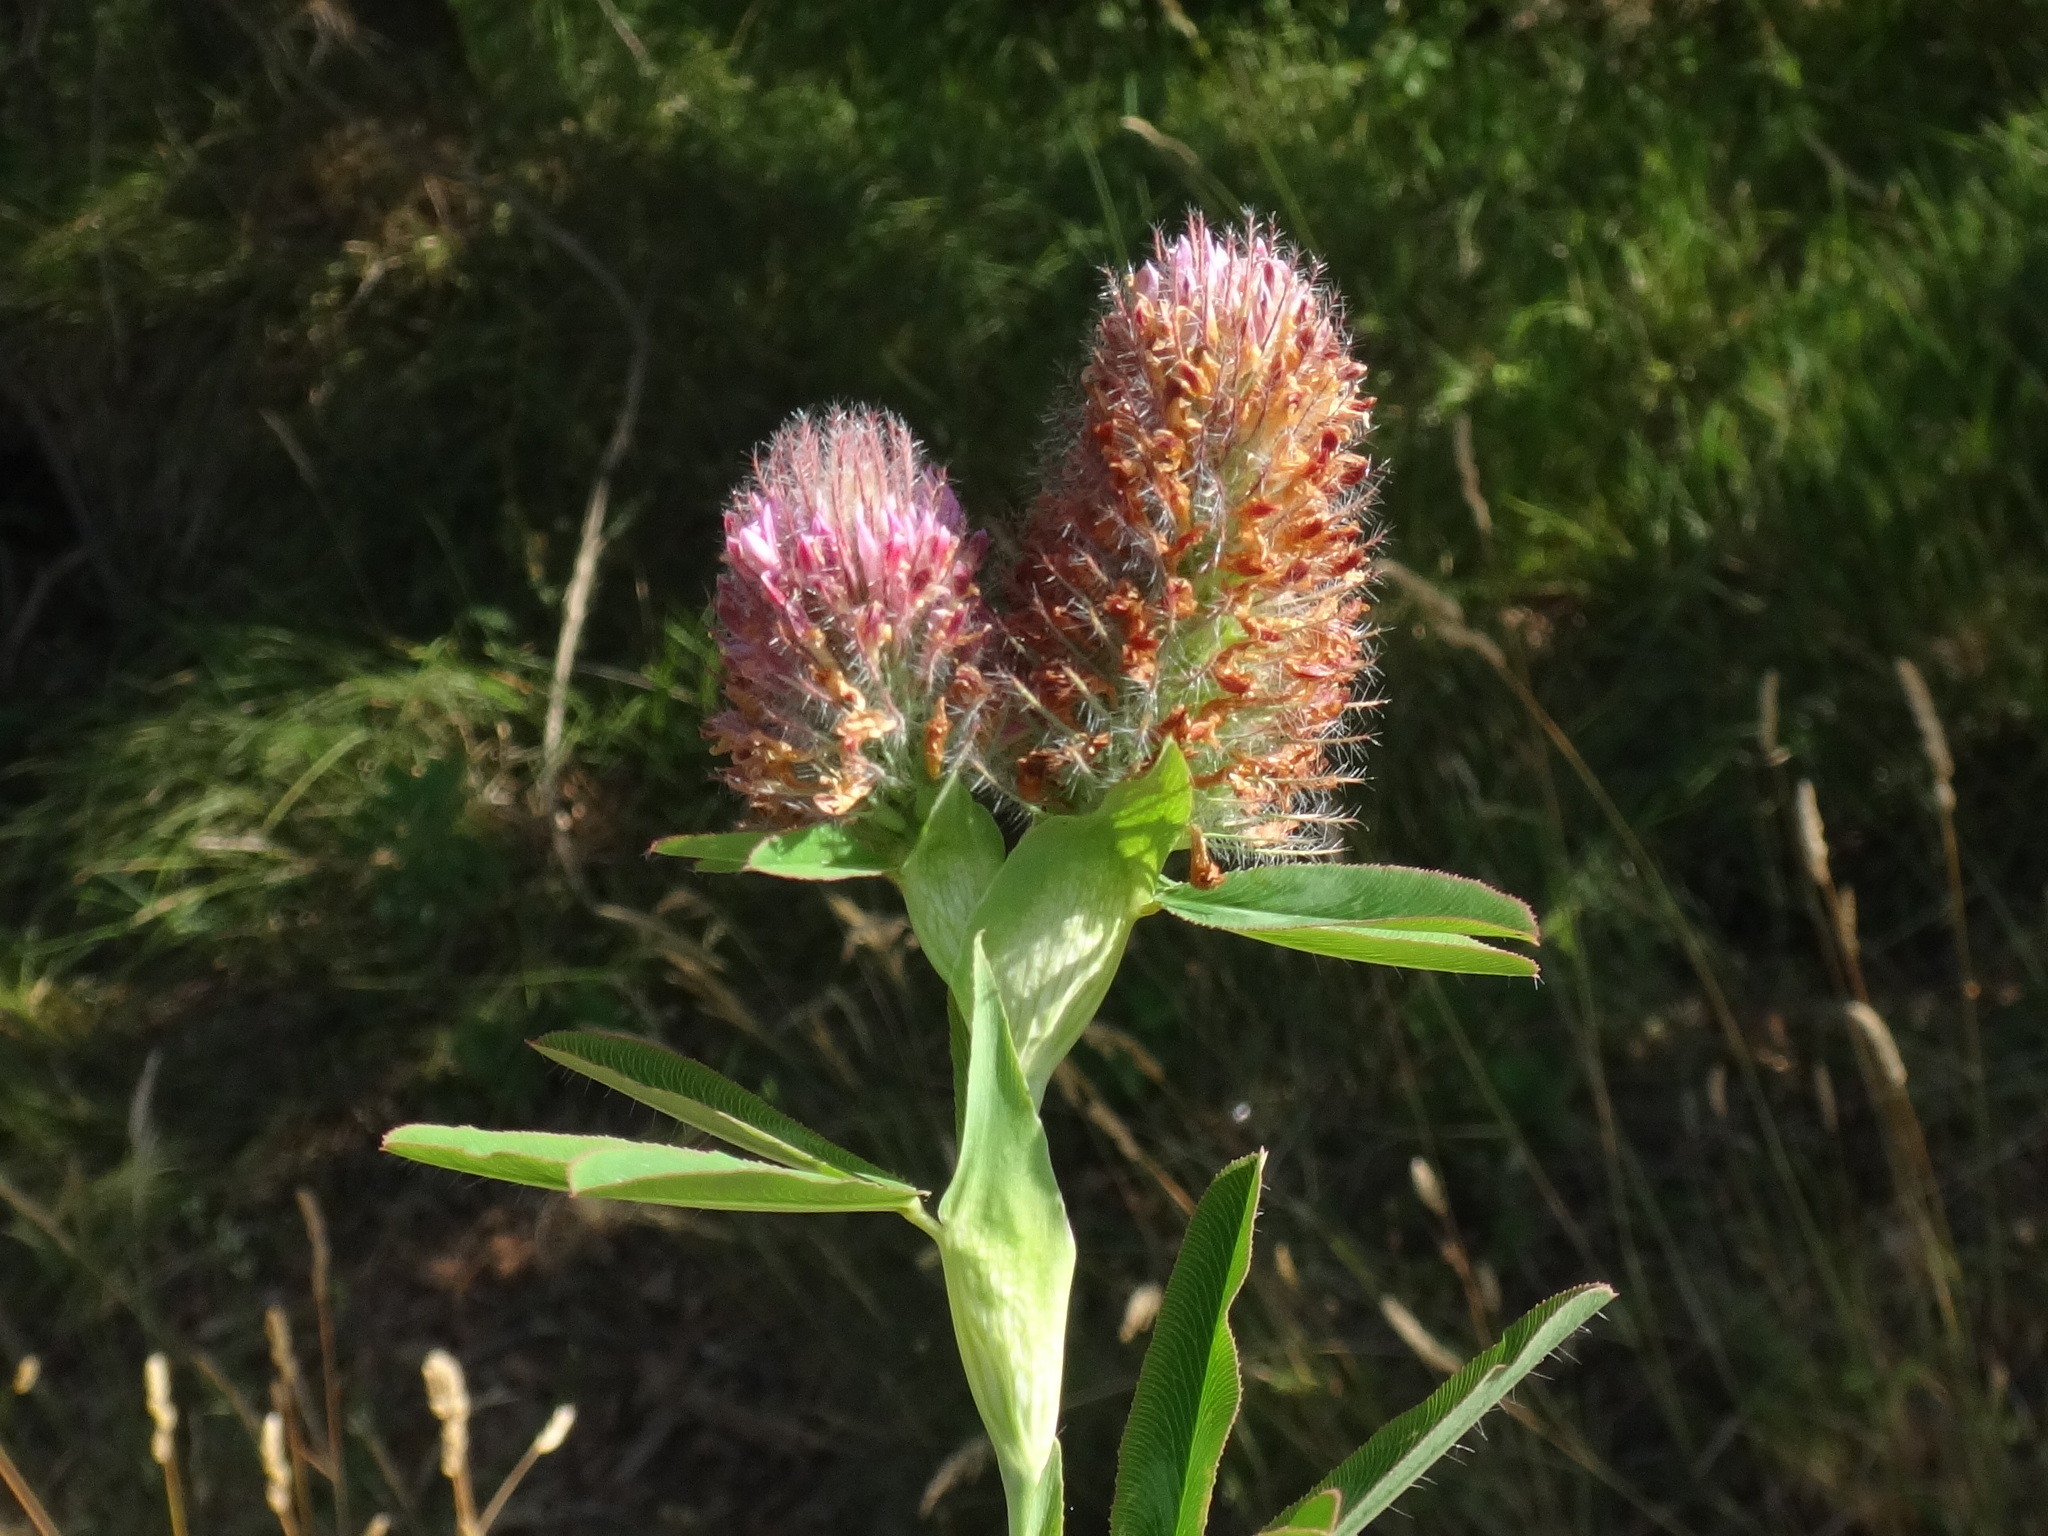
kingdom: Plantae
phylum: Tracheophyta
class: Magnoliopsida
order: Fabales
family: Fabaceae
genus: Trifolium
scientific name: Trifolium rubens
